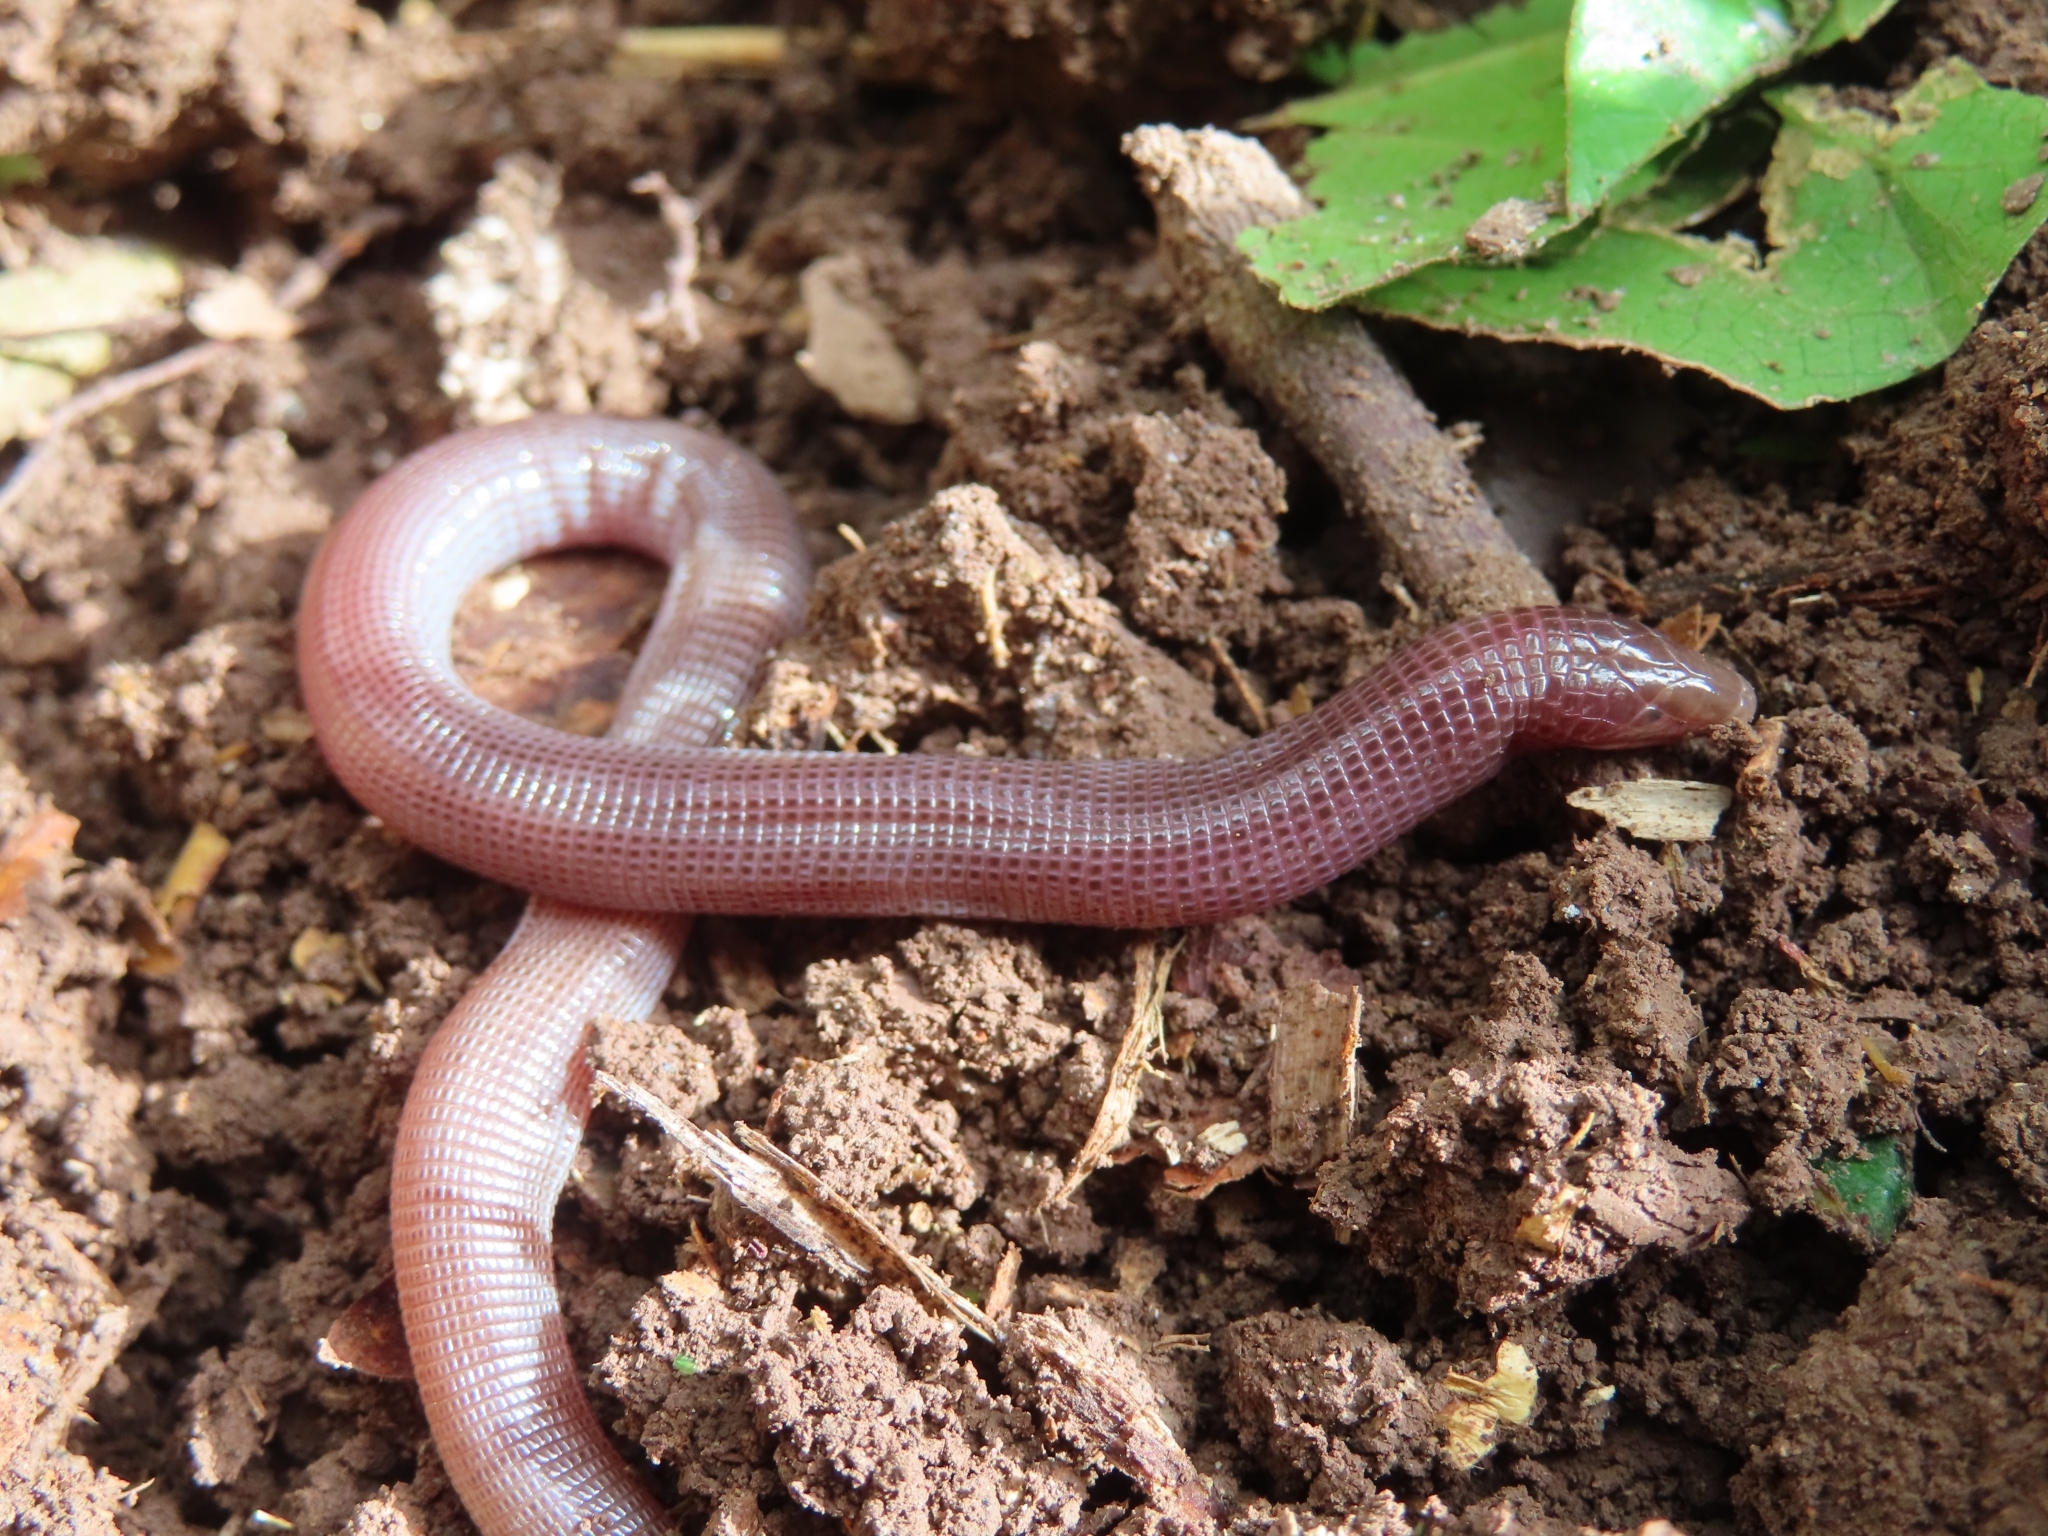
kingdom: Animalia
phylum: Chordata
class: Squamata
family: Amphisbaenidae
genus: Amphisbaena
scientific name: Amphisbaena caeca
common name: Blind worm lizard
